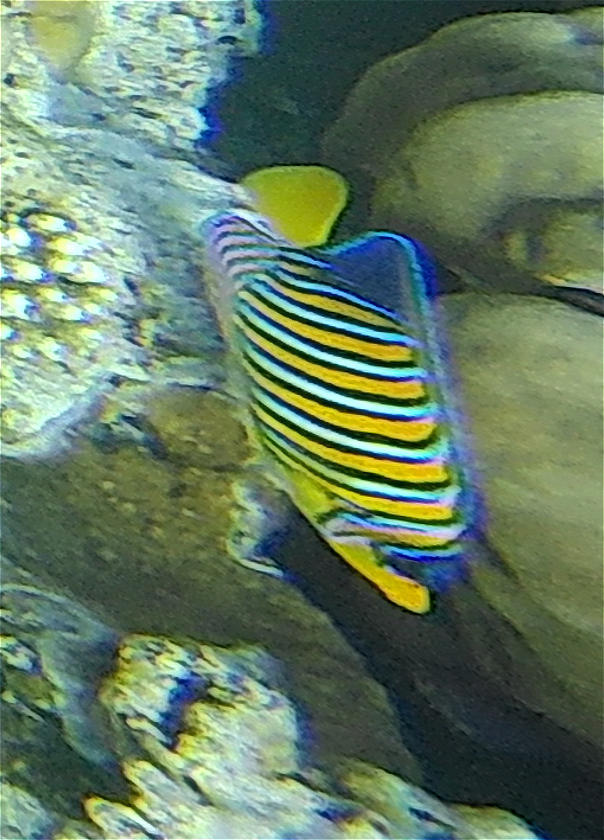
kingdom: Animalia
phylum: Chordata
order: Perciformes
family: Pomacanthidae
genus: Pygoplites
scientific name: Pygoplites diacanthus
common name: Regal angelfish
